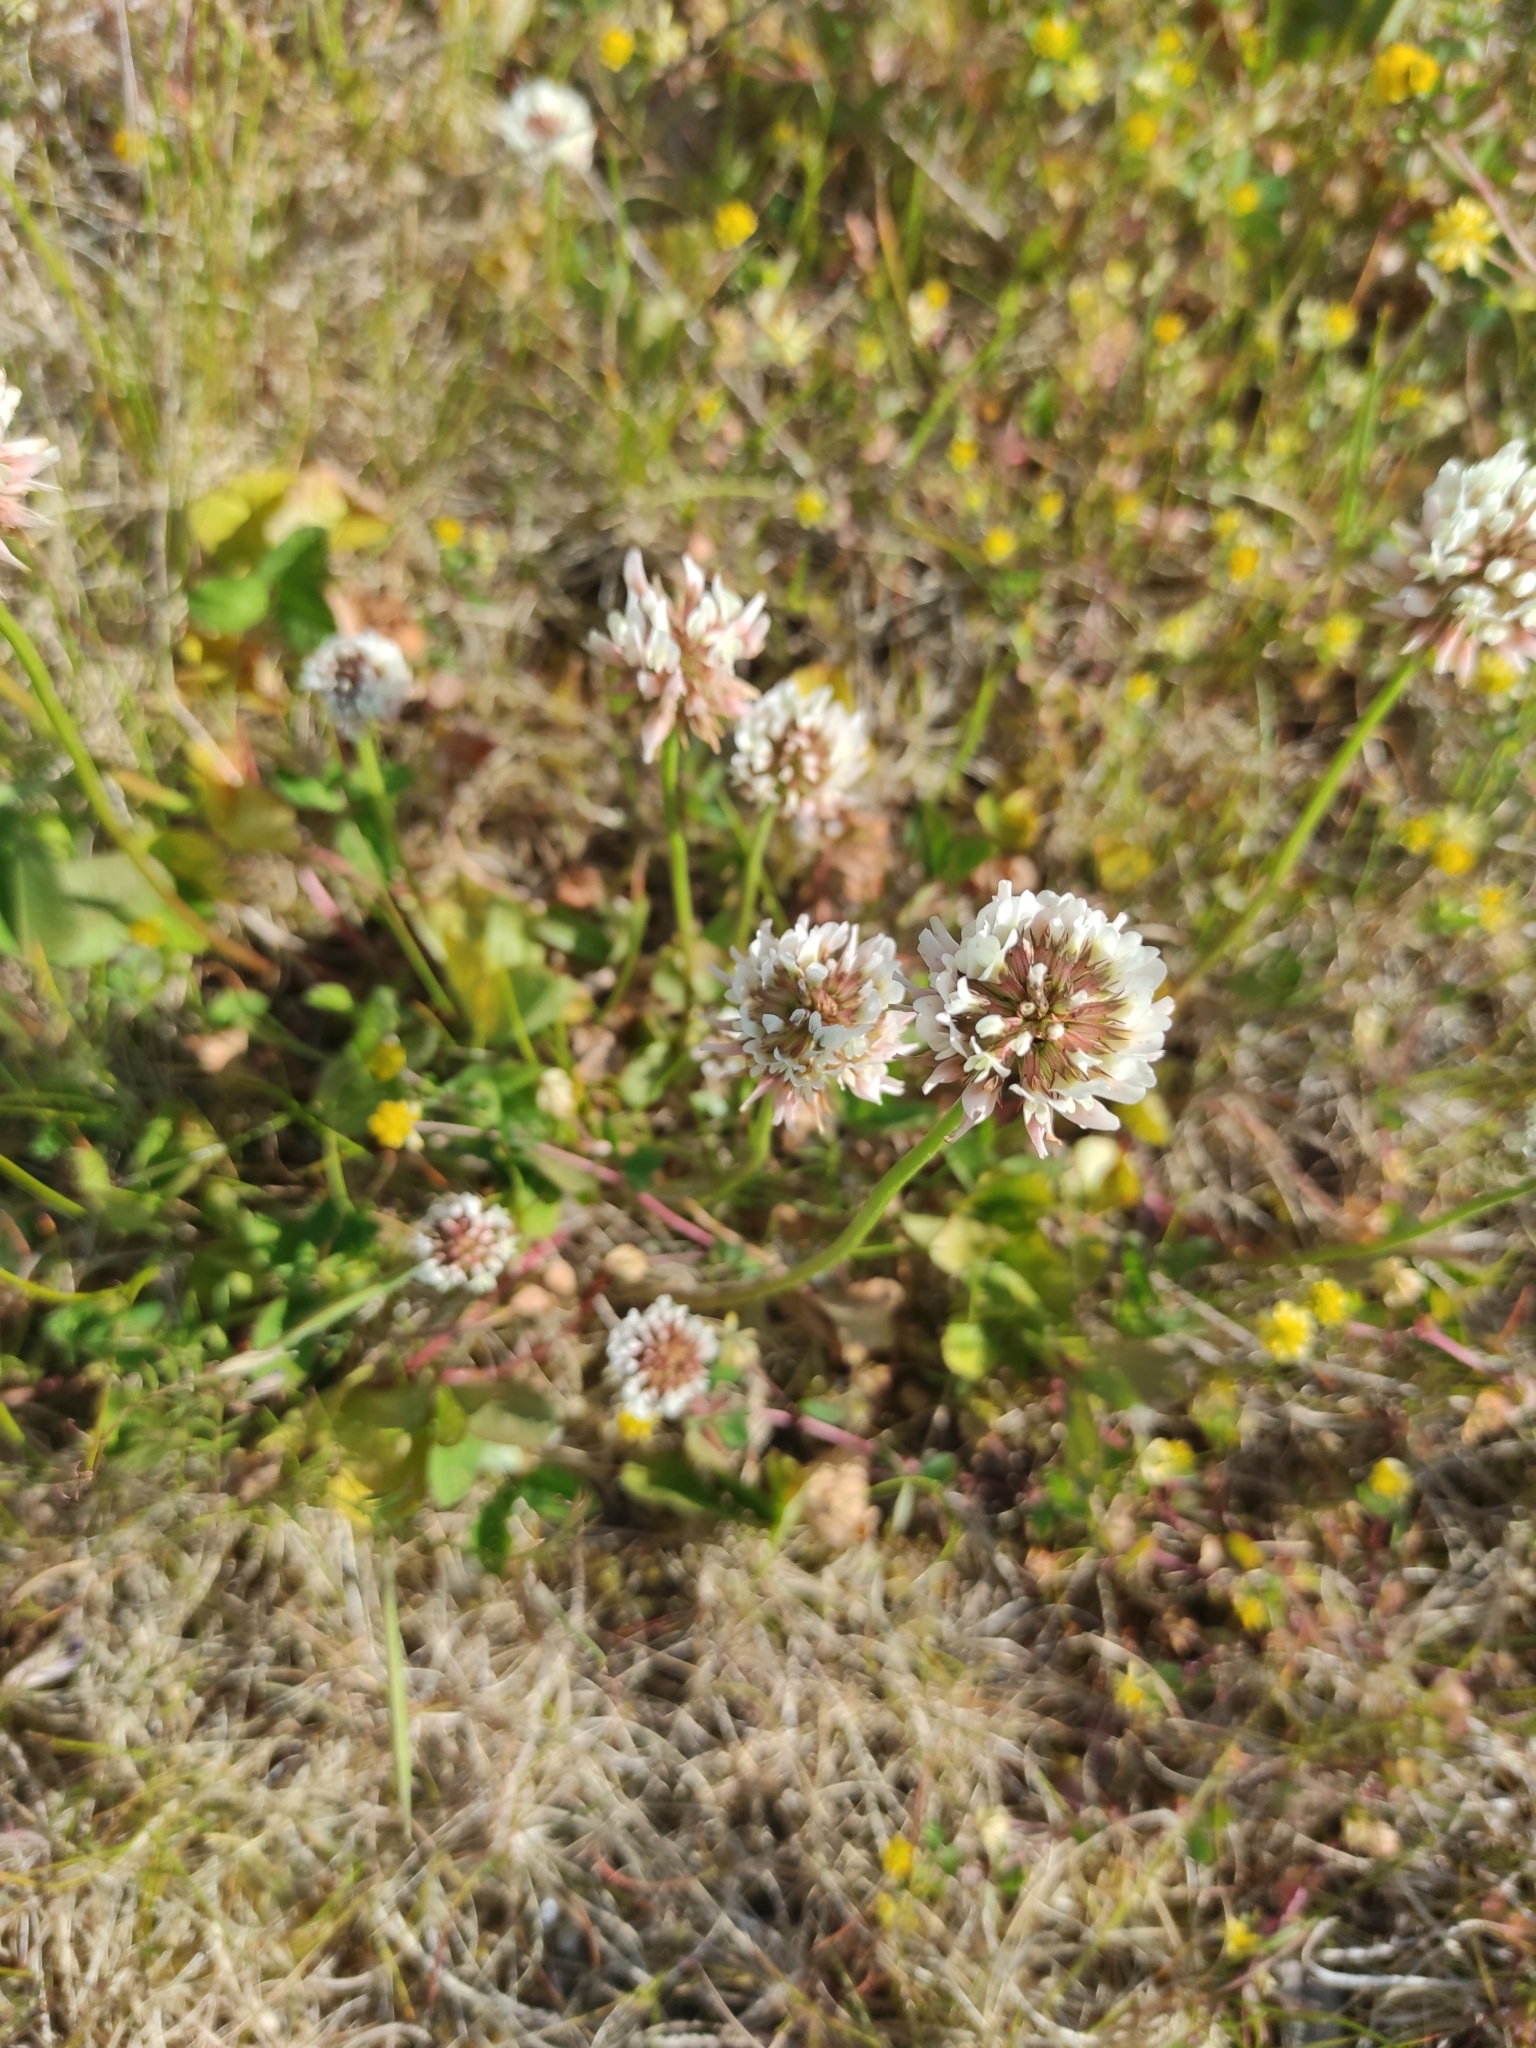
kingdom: Plantae
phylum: Tracheophyta
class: Magnoliopsida
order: Fabales
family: Fabaceae
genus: Trifolium
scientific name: Trifolium repens
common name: White clover
